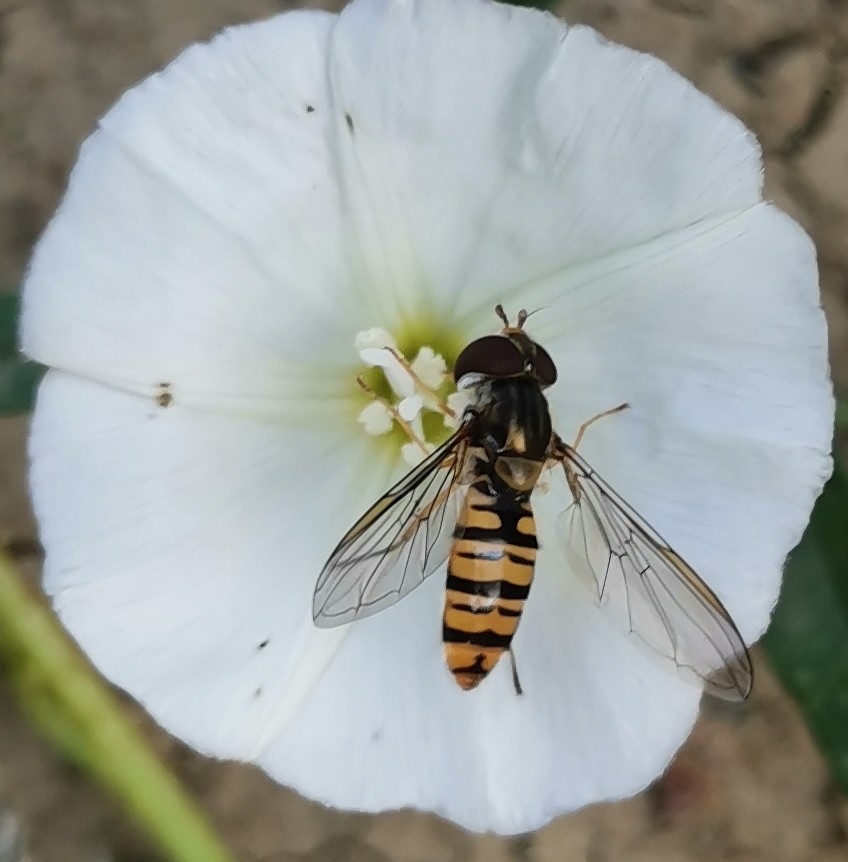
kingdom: Animalia
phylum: Arthropoda
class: Insecta
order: Diptera
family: Syrphidae
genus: Episyrphus
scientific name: Episyrphus balteatus
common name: Marmalade hoverfly
